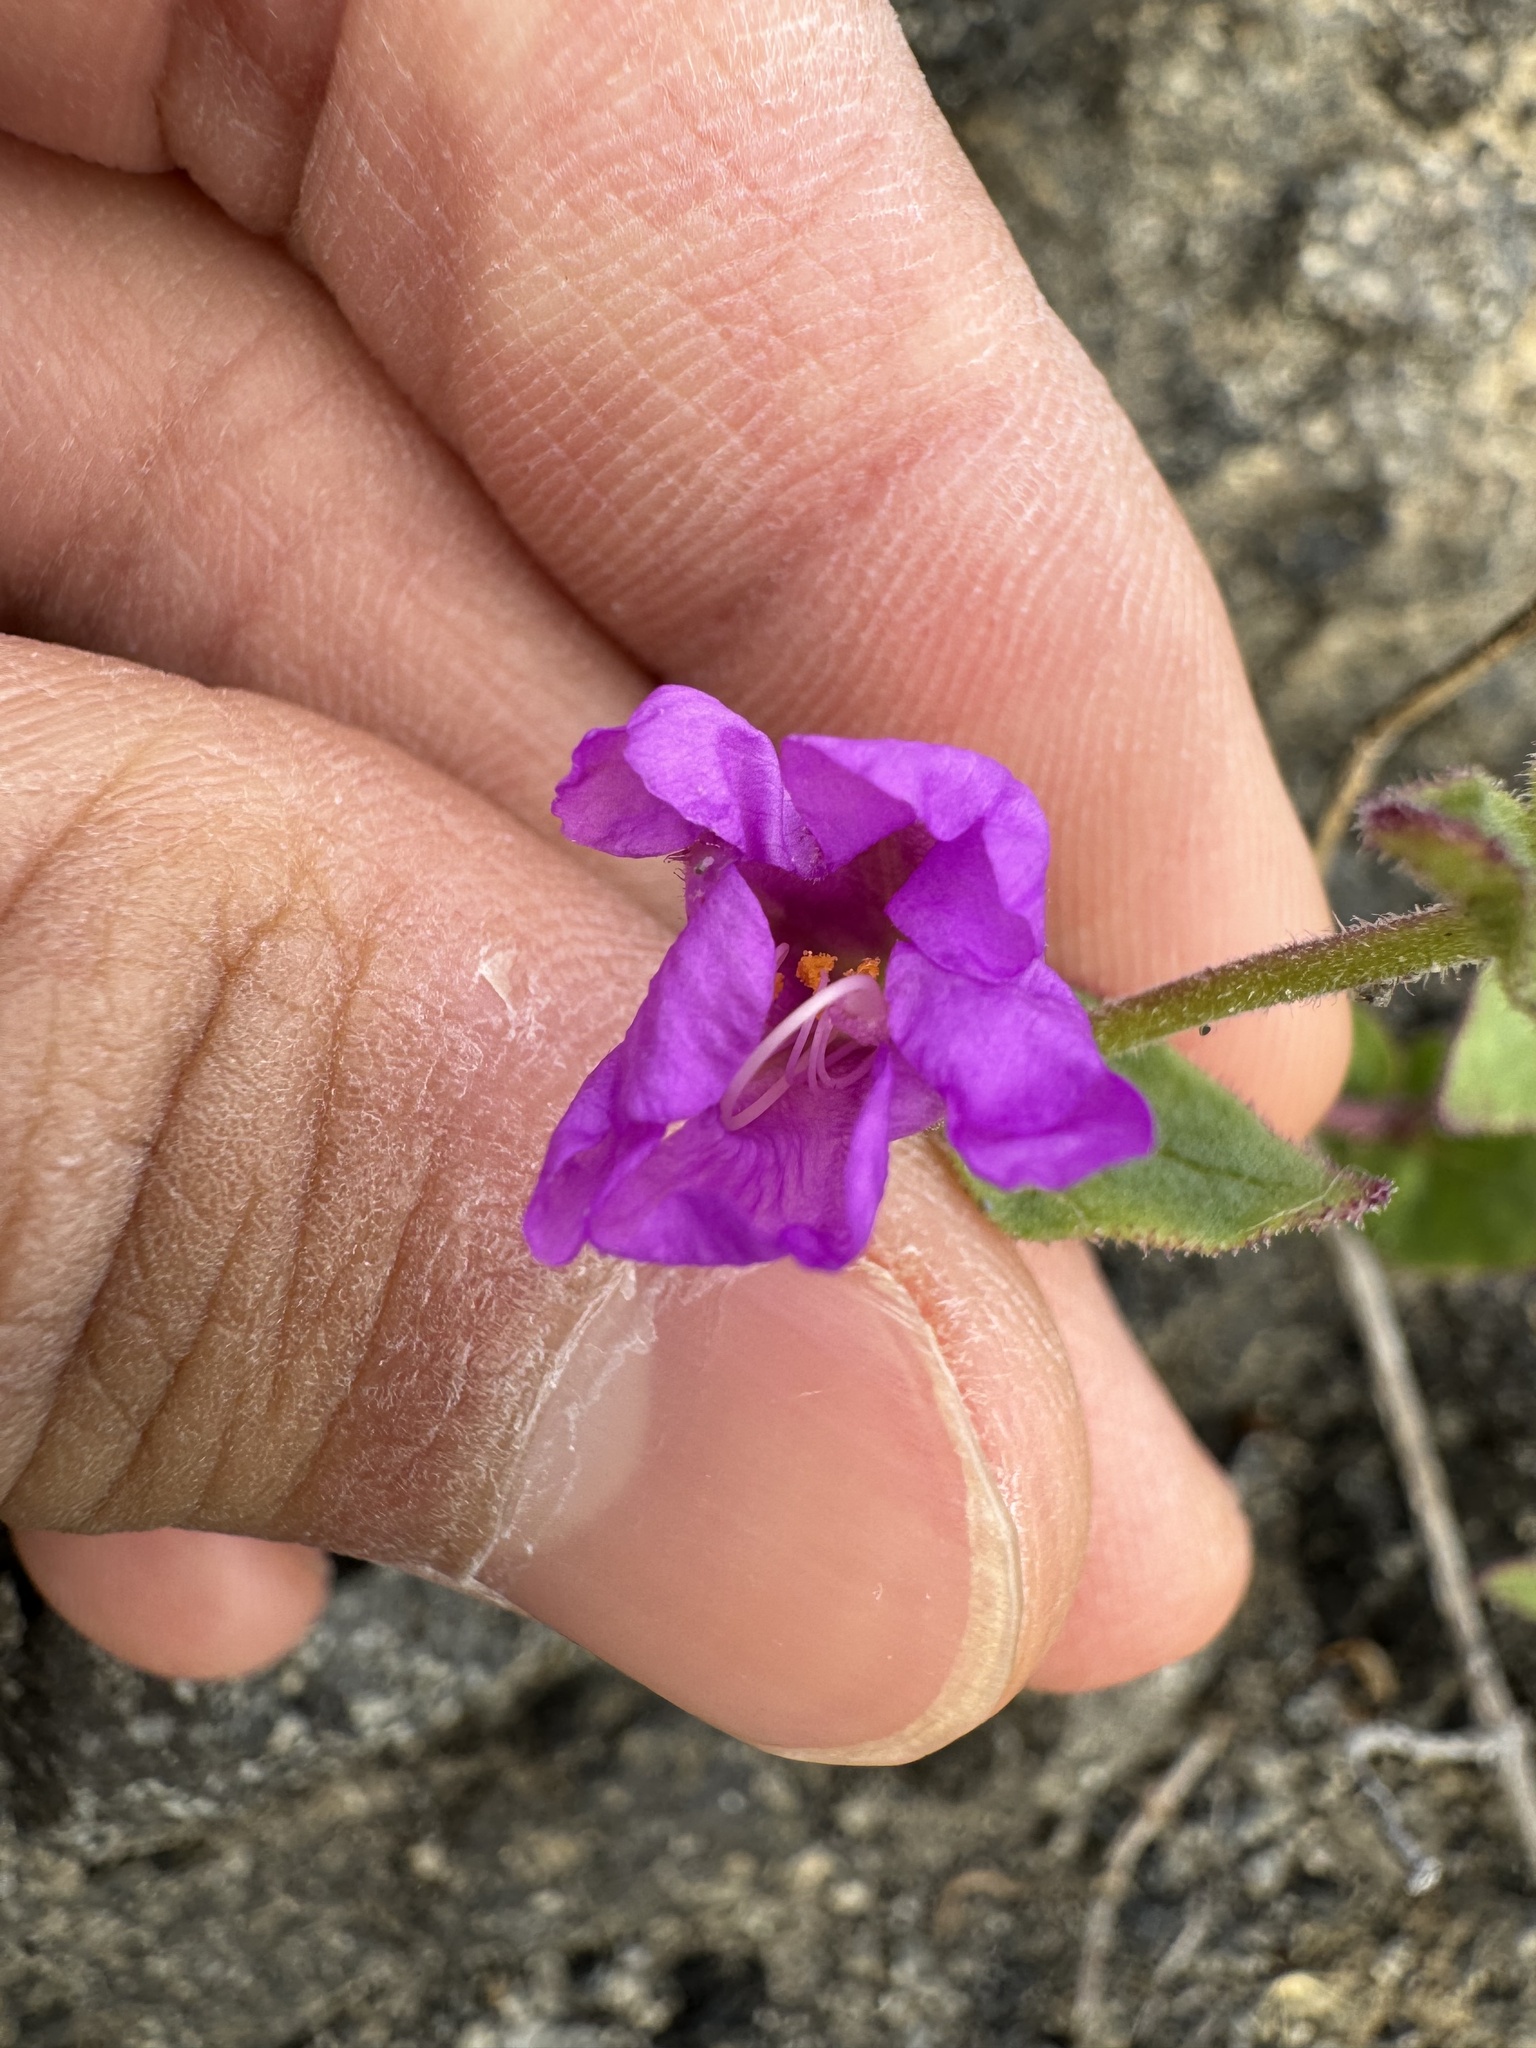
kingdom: Plantae
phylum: Tracheophyta
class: Magnoliopsida
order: Caryophyllales
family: Nyctaginaceae
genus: Mirabilis
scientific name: Mirabilis laevis
